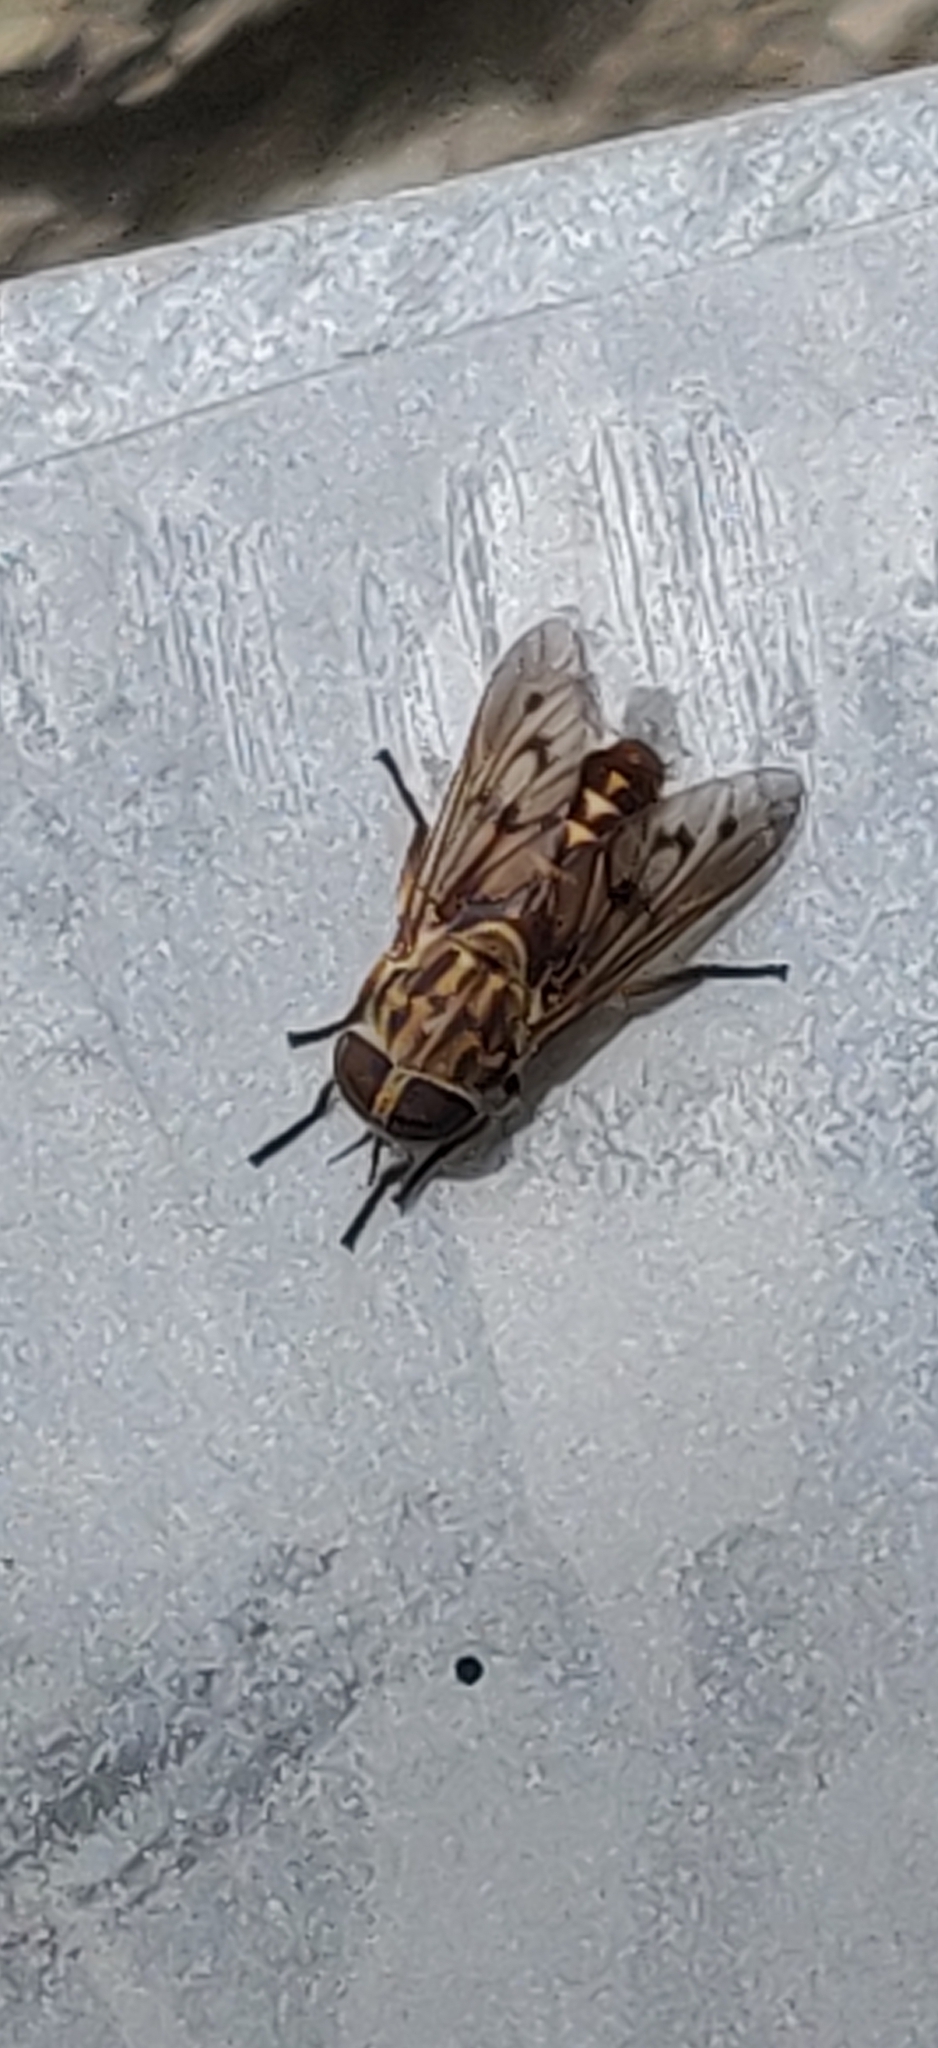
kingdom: Animalia
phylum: Arthropoda
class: Insecta
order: Diptera
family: Tabanidae
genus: Tabanus
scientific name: Tabanus trimaculatus
